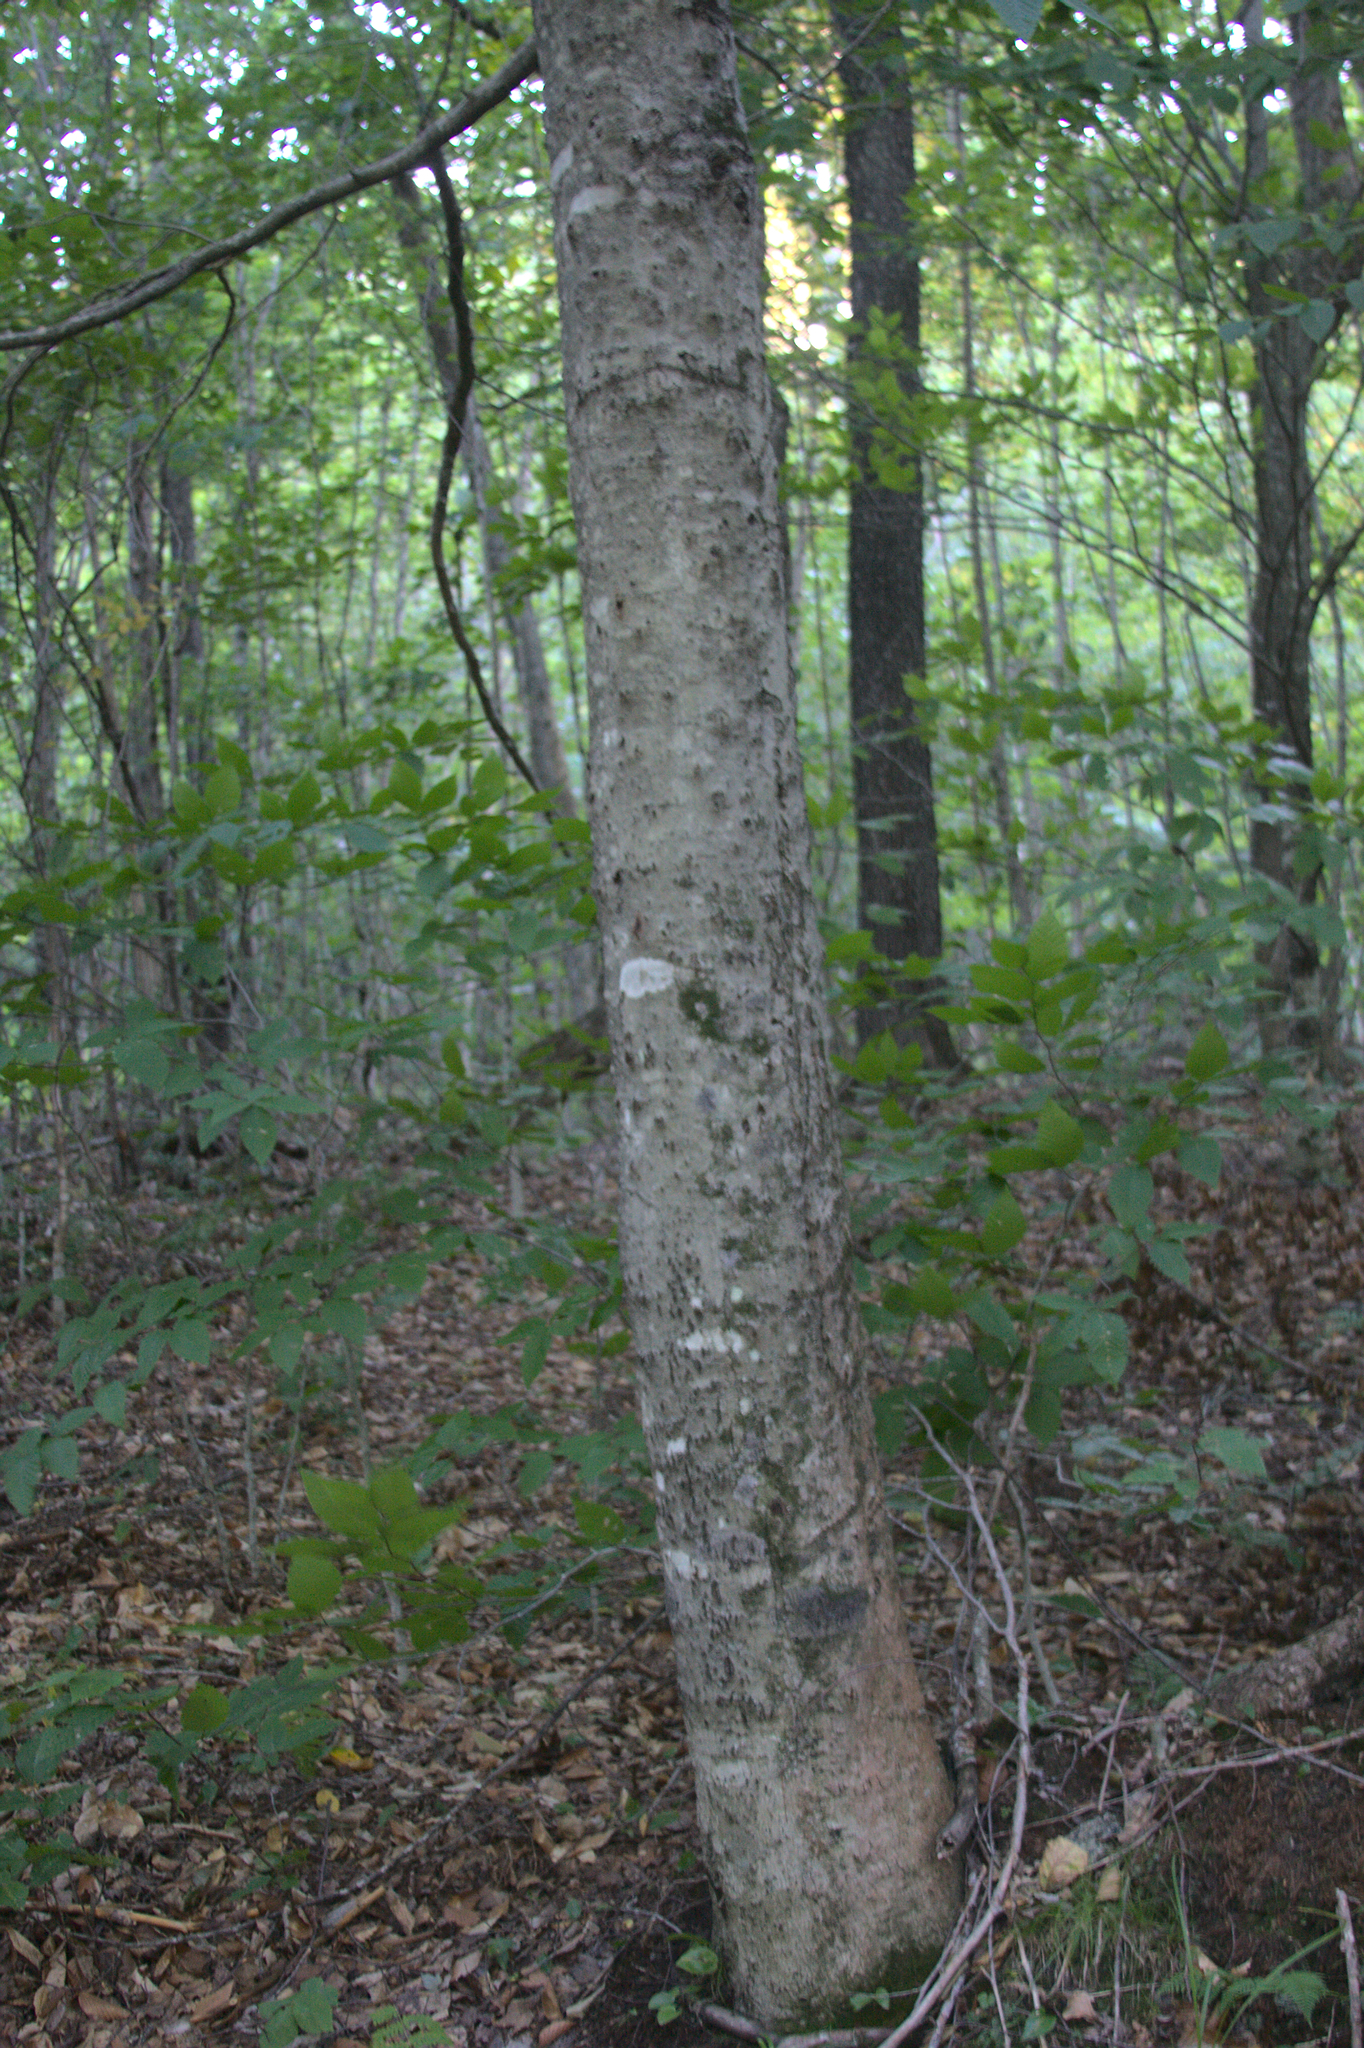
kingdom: Plantae
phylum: Tracheophyta
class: Magnoliopsida
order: Fagales
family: Fagaceae
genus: Fagus
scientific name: Fagus grandifolia
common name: American beech
